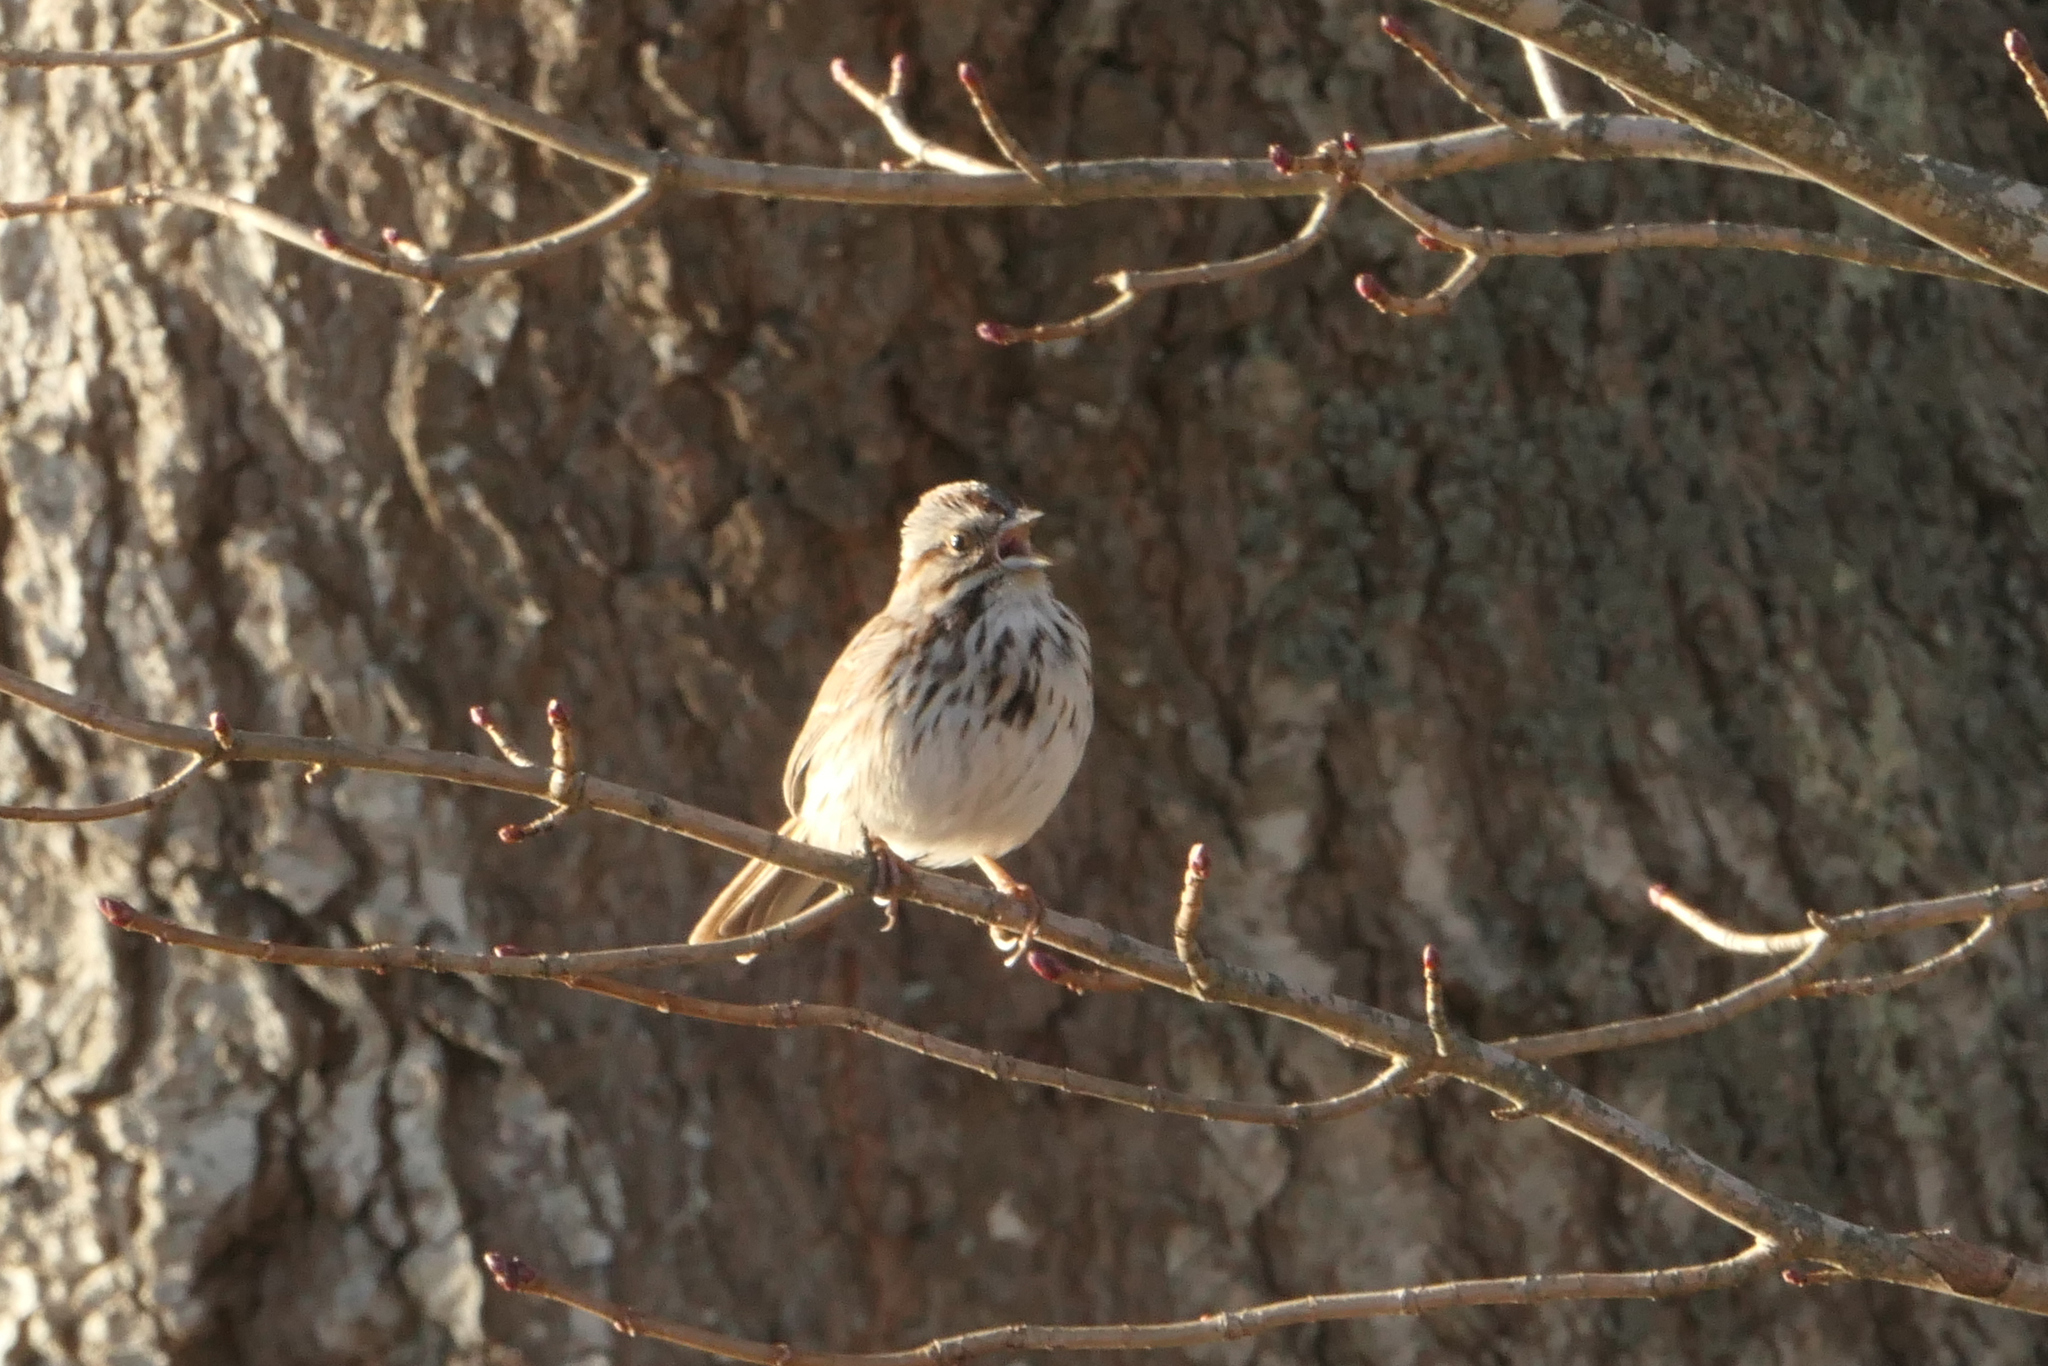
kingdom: Animalia
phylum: Chordata
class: Aves
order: Passeriformes
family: Passerellidae
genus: Melospiza
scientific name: Melospiza melodia
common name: Song sparrow
